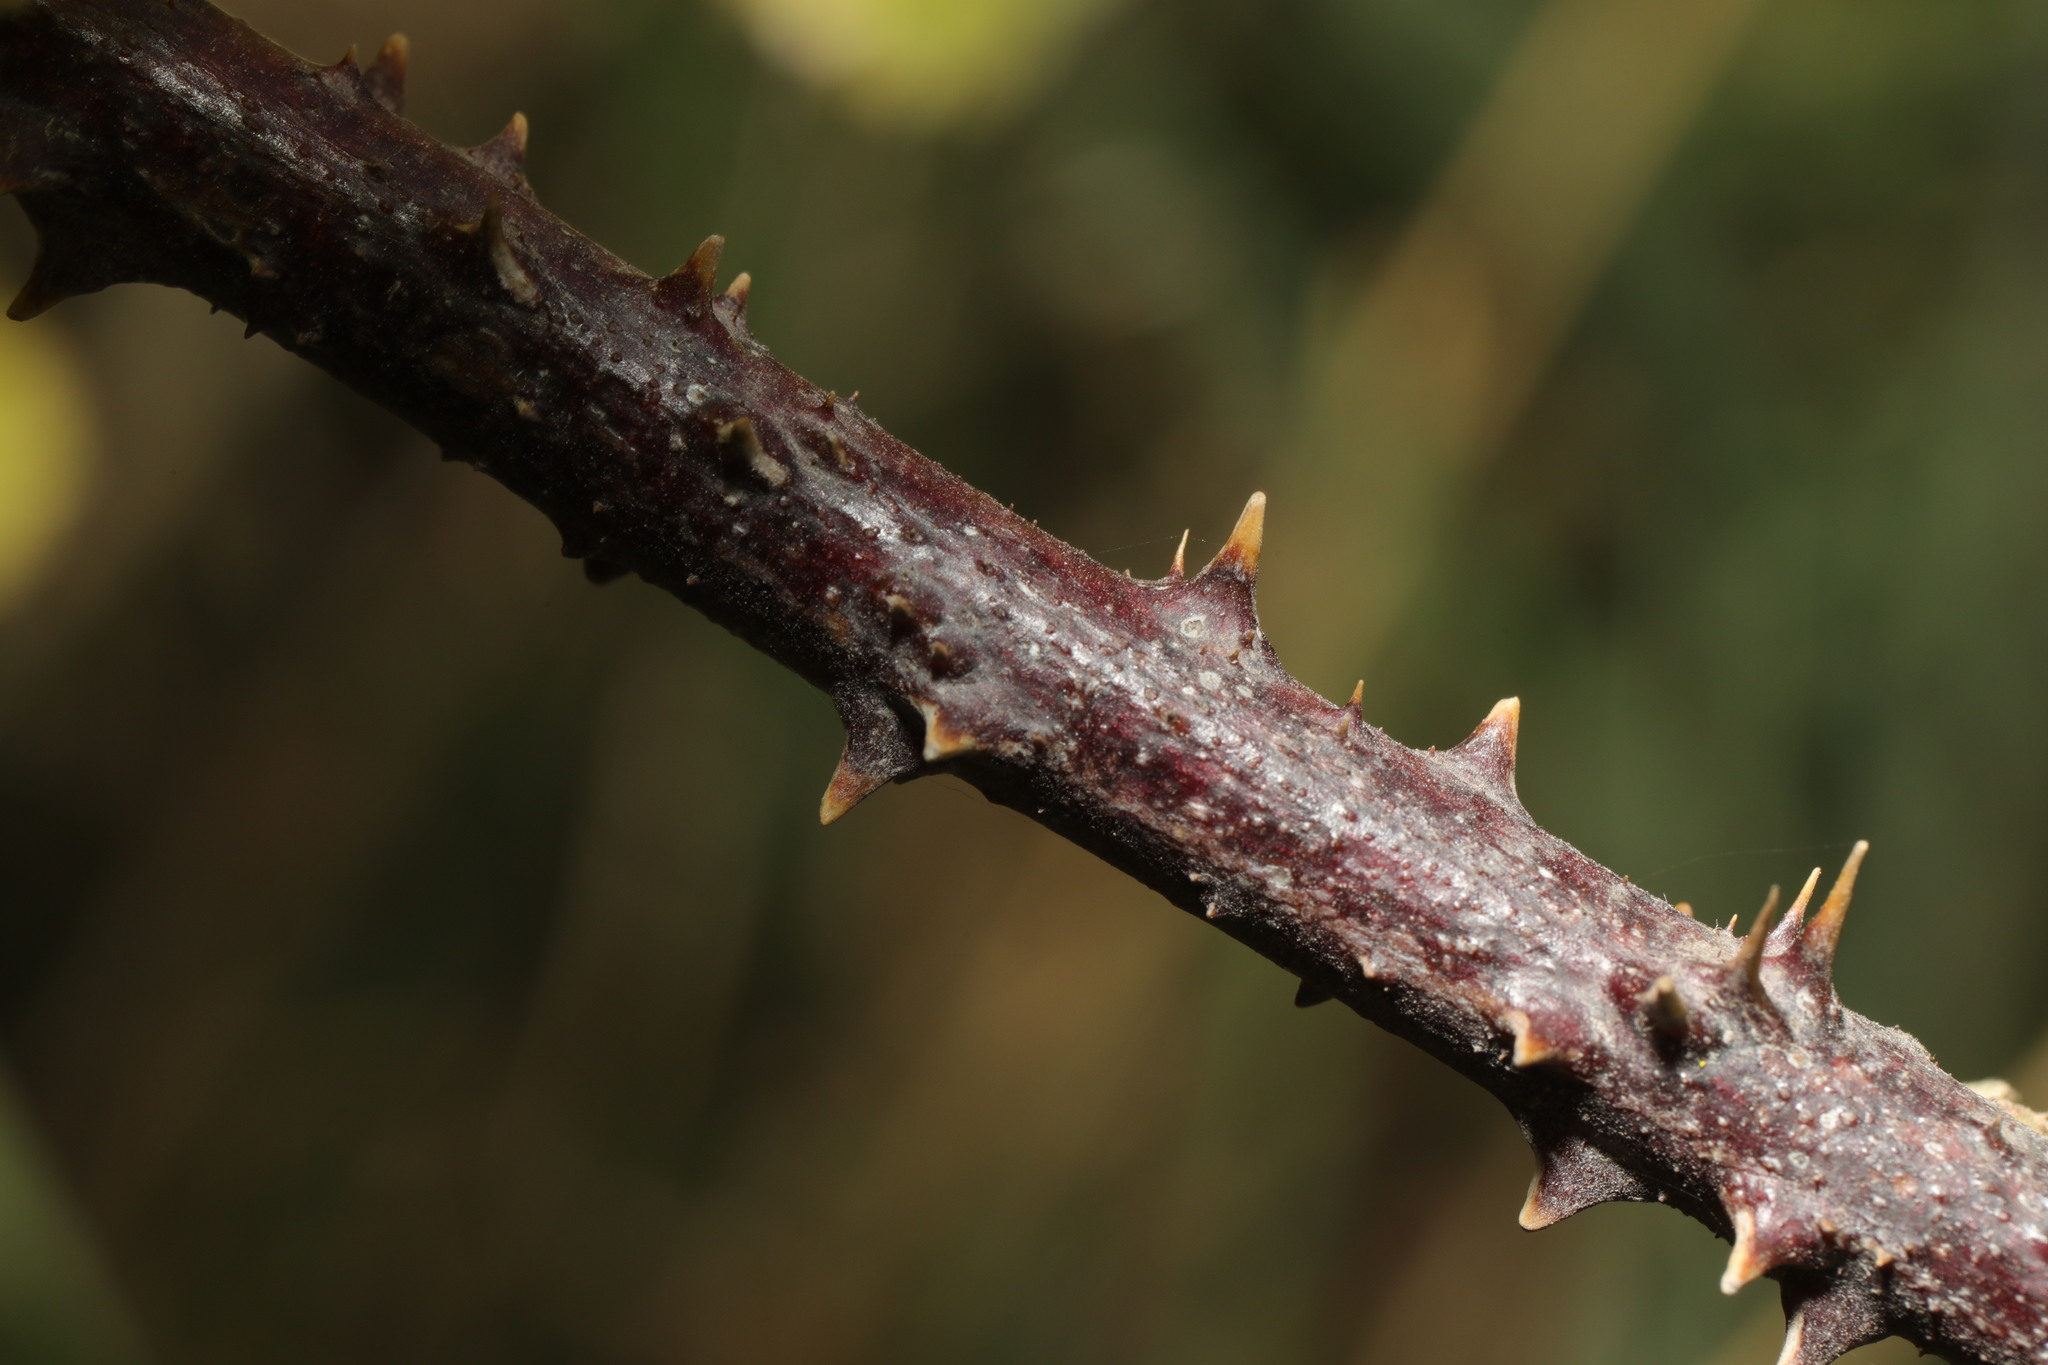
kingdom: Plantae
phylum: Tracheophyta
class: Magnoliopsida
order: Rosales
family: Rosaceae
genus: Rubus
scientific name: Rubus caesius
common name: Dewberry
